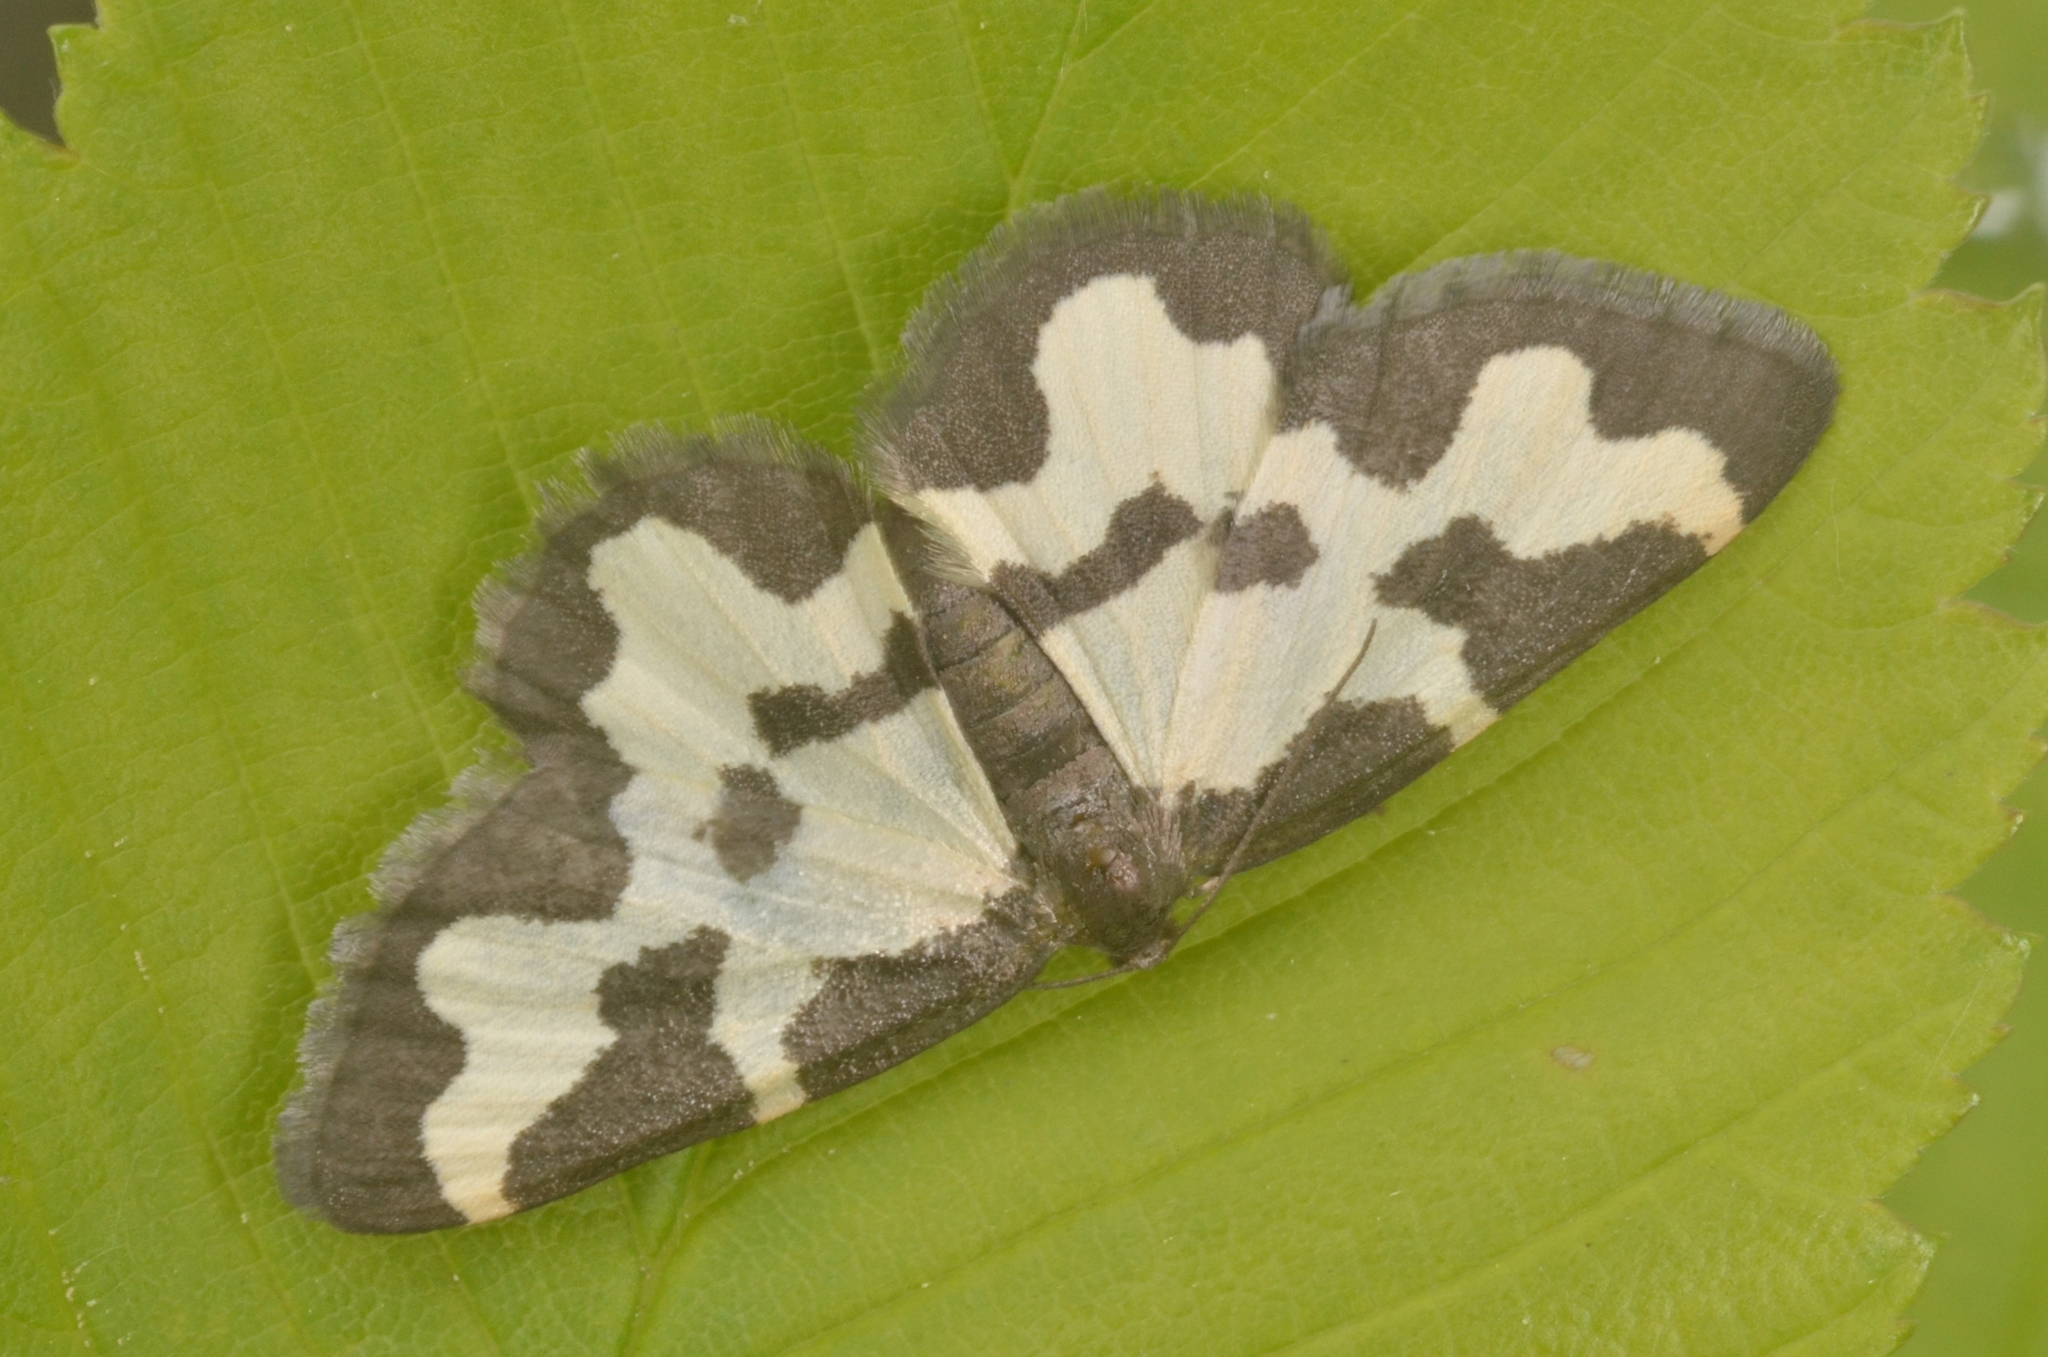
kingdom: Animalia
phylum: Arthropoda
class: Insecta
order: Lepidoptera
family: Geometridae
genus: Lomaspilis
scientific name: Lomaspilis marginata
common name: Clouded border
